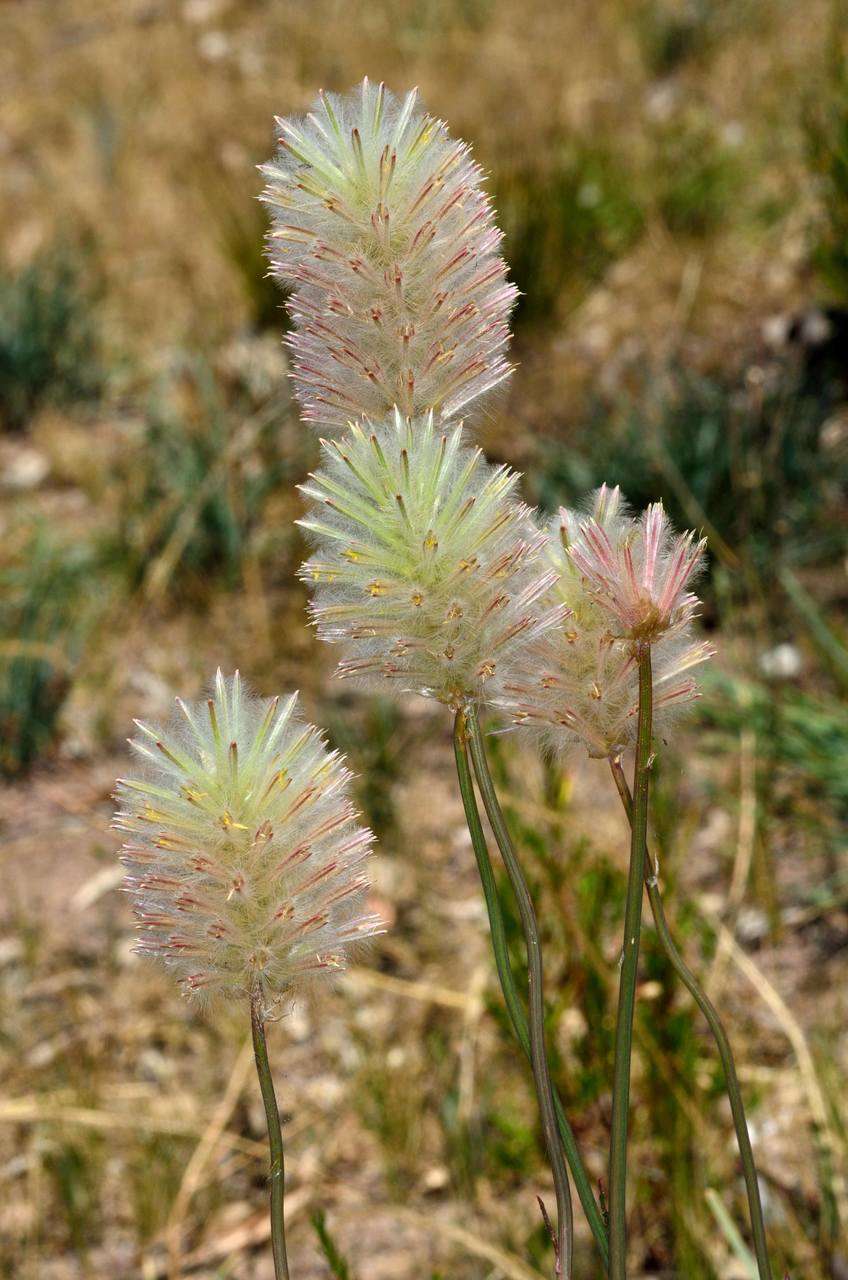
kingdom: Plantae
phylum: Tracheophyta
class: Magnoliopsida
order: Caryophyllales
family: Amaranthaceae
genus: Ptilotus
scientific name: Ptilotus macrocephalus
